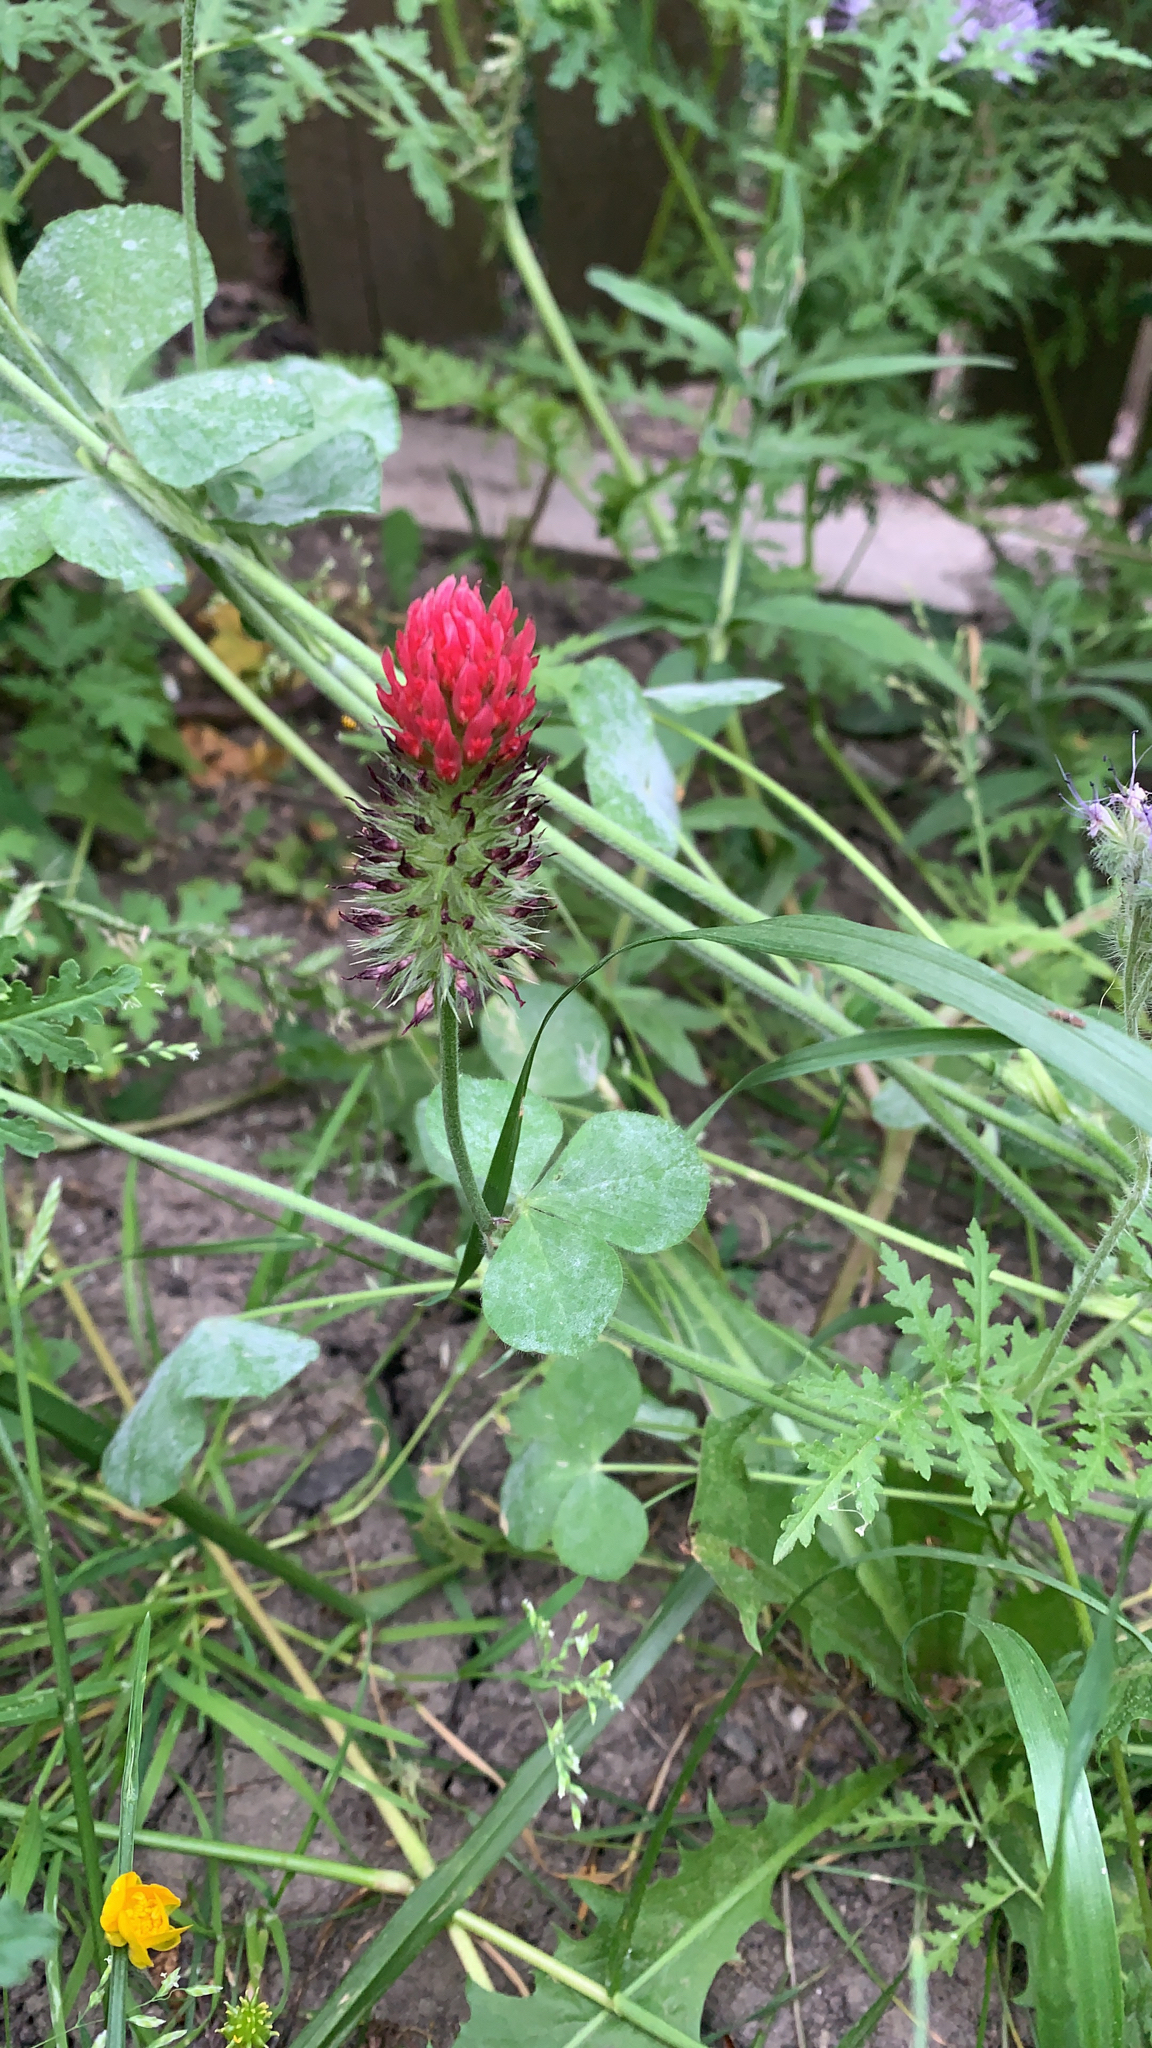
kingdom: Plantae
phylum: Tracheophyta
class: Magnoliopsida
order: Fabales
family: Fabaceae
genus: Trifolium
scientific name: Trifolium incarnatum
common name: Crimson clover
